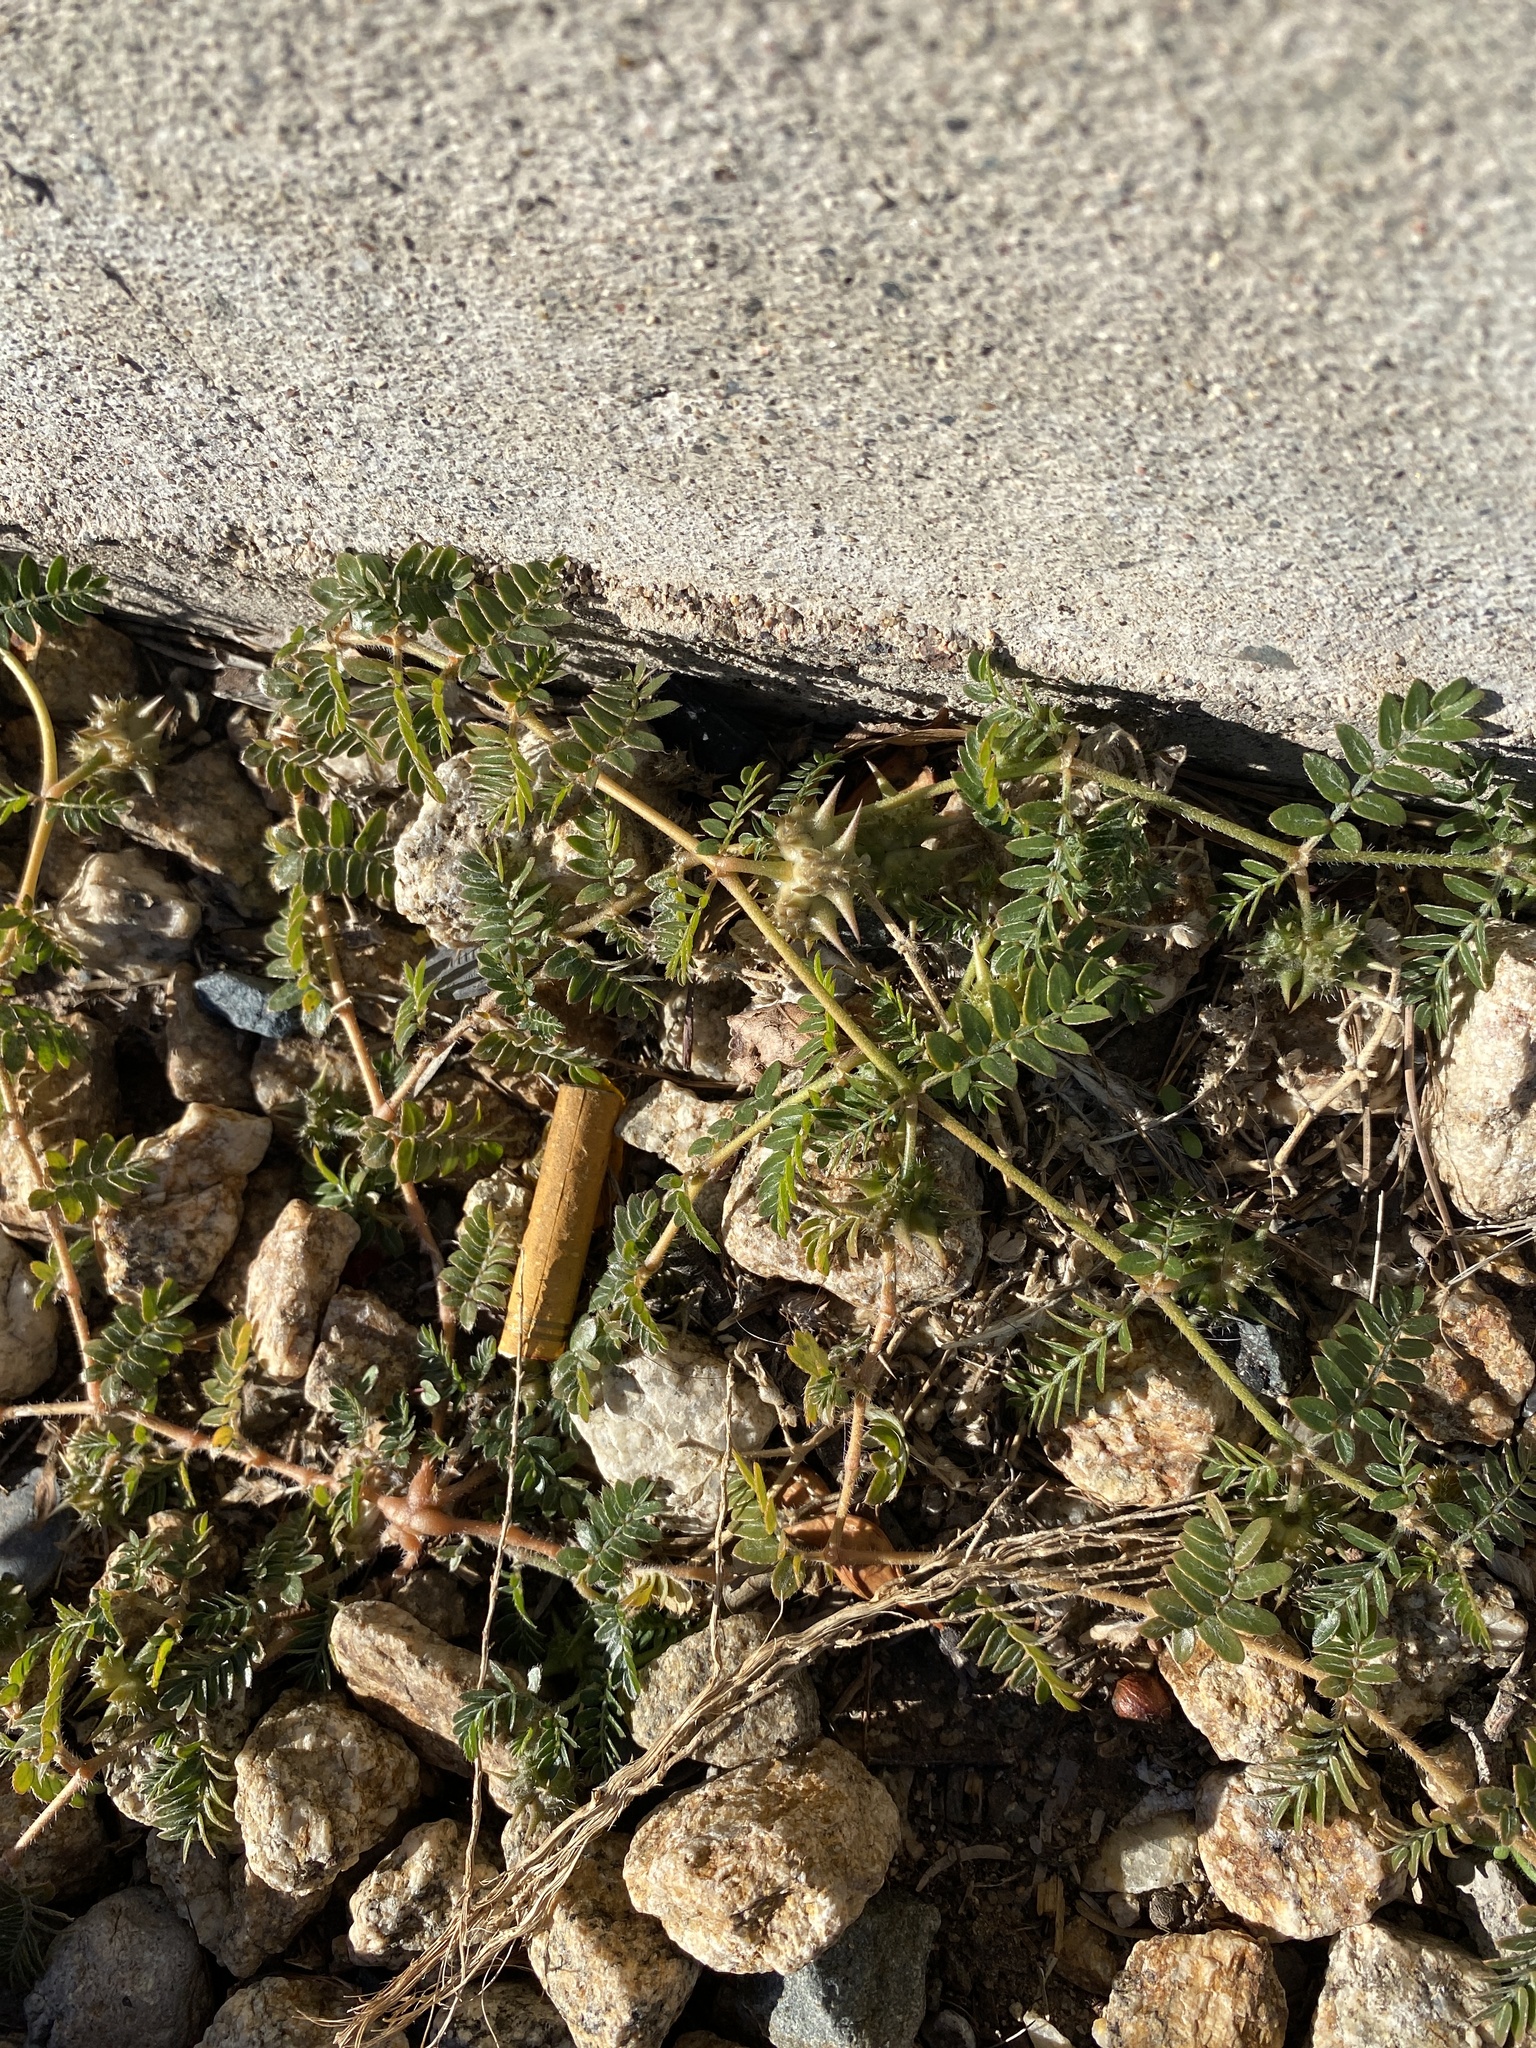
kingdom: Plantae
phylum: Tracheophyta
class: Magnoliopsida
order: Zygophyllales
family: Zygophyllaceae
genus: Tribulus
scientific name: Tribulus terrestris
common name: Puncturevine
